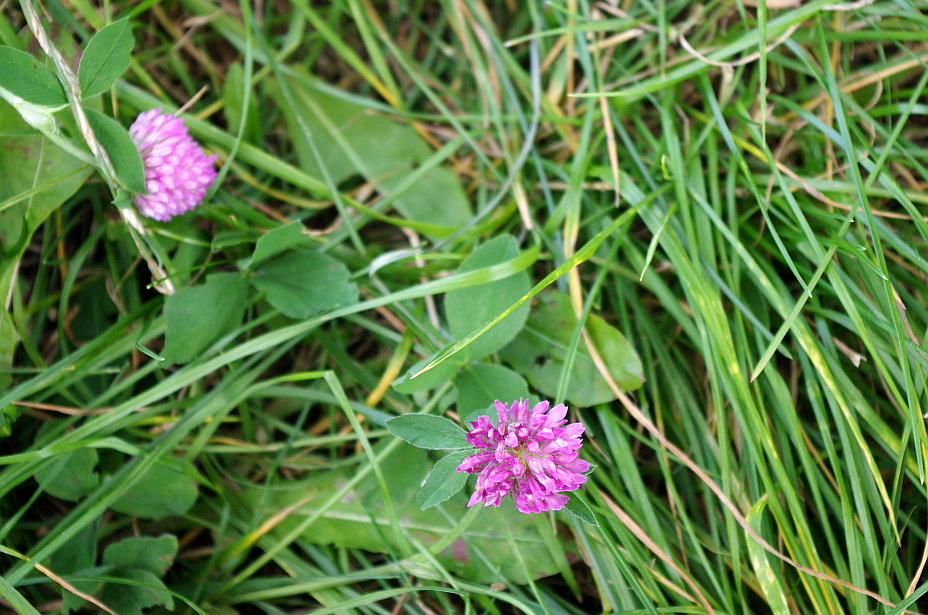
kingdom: Plantae
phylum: Tracheophyta
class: Magnoliopsida
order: Fabales
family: Fabaceae
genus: Trifolium
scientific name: Trifolium pratense
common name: Red clover
